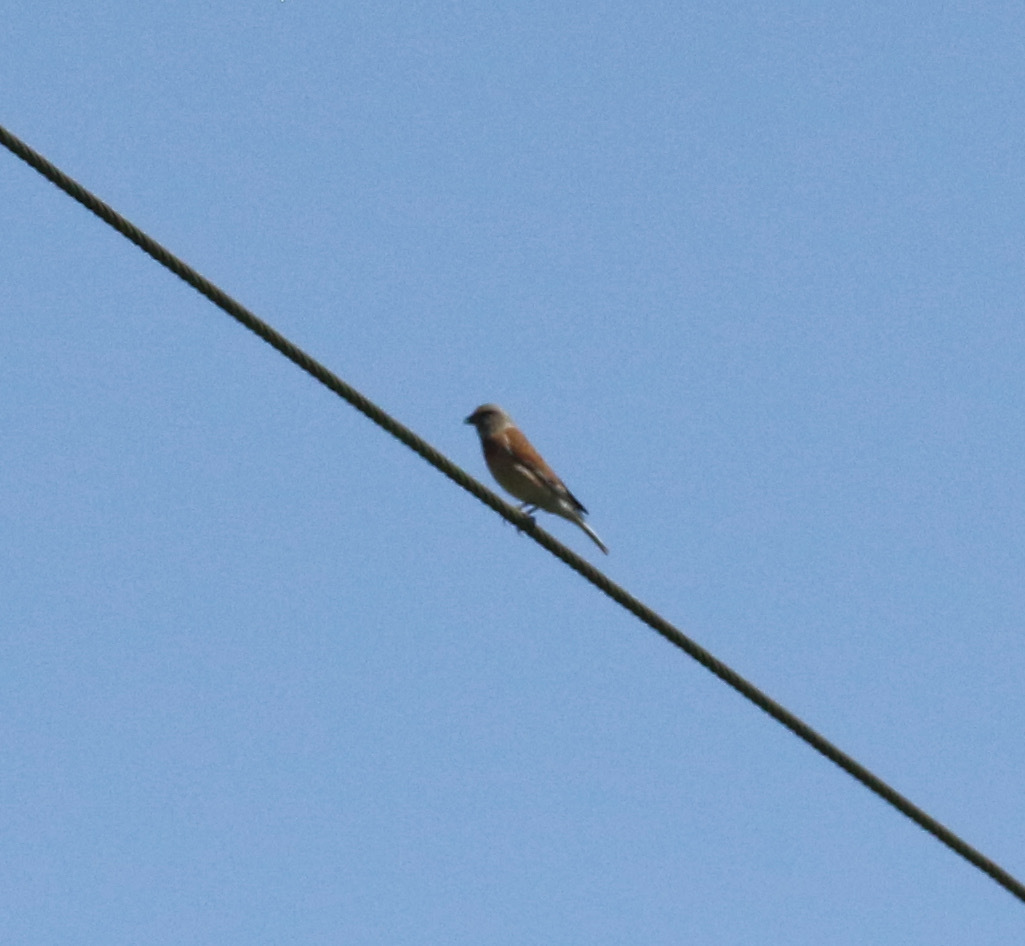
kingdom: Animalia
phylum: Chordata
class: Aves
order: Passeriformes
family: Fringillidae
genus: Linaria
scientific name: Linaria cannabina
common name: Common linnet
